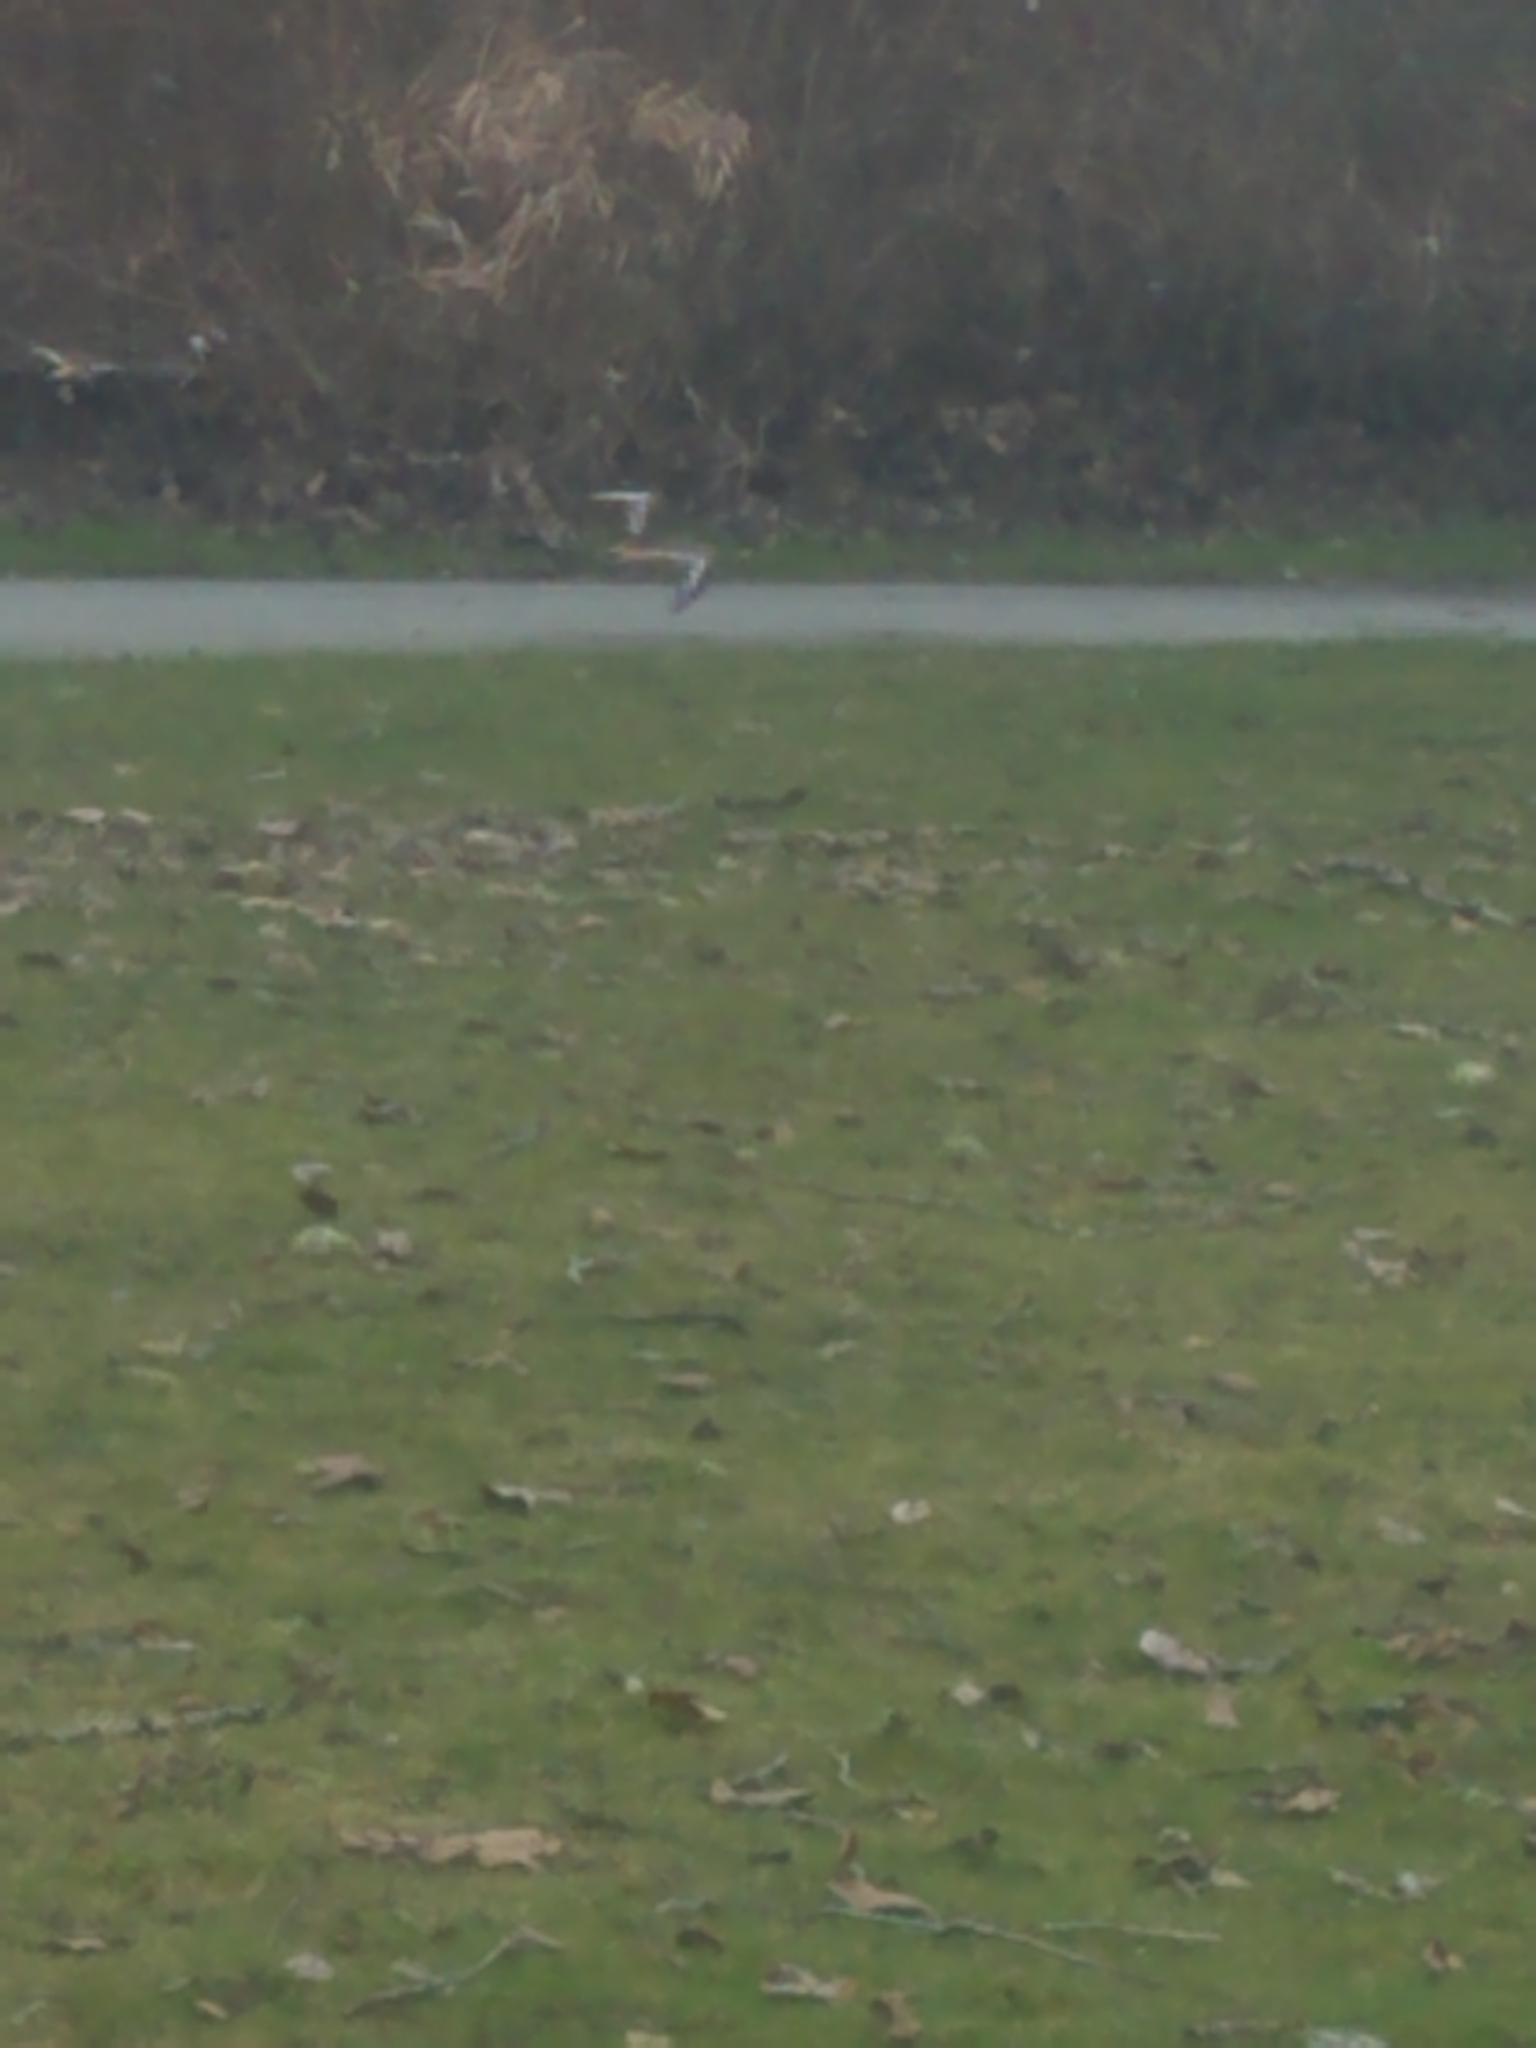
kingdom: Animalia
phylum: Chordata
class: Aves
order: Charadriiformes
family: Charadriidae
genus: Charadrius
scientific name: Charadrius vociferus
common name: Killdeer
